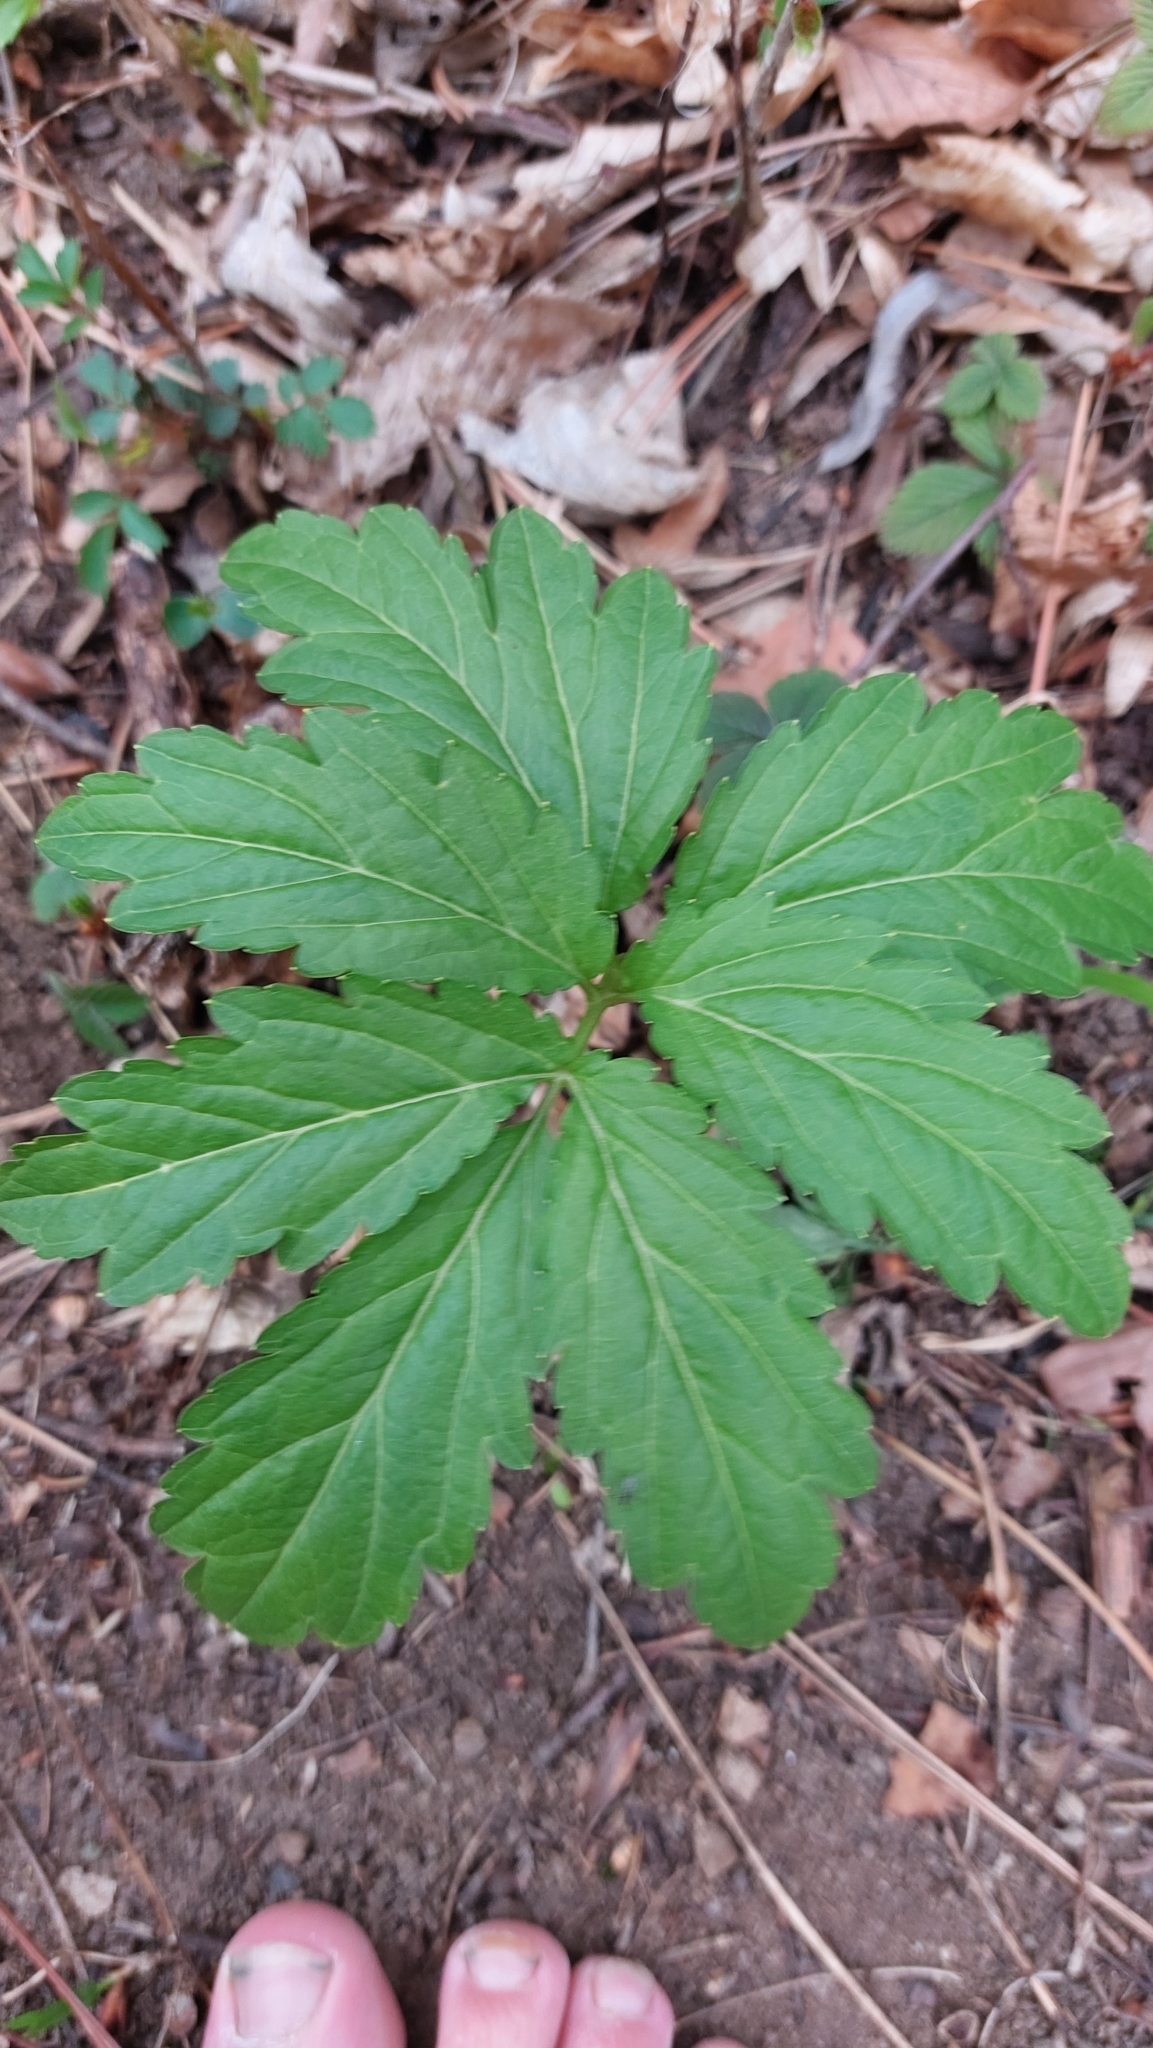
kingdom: Plantae
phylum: Tracheophyta
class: Magnoliopsida
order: Brassicales
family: Brassicaceae
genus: Cardamine
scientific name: Cardamine bulbifera
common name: Coralroot bittercress
